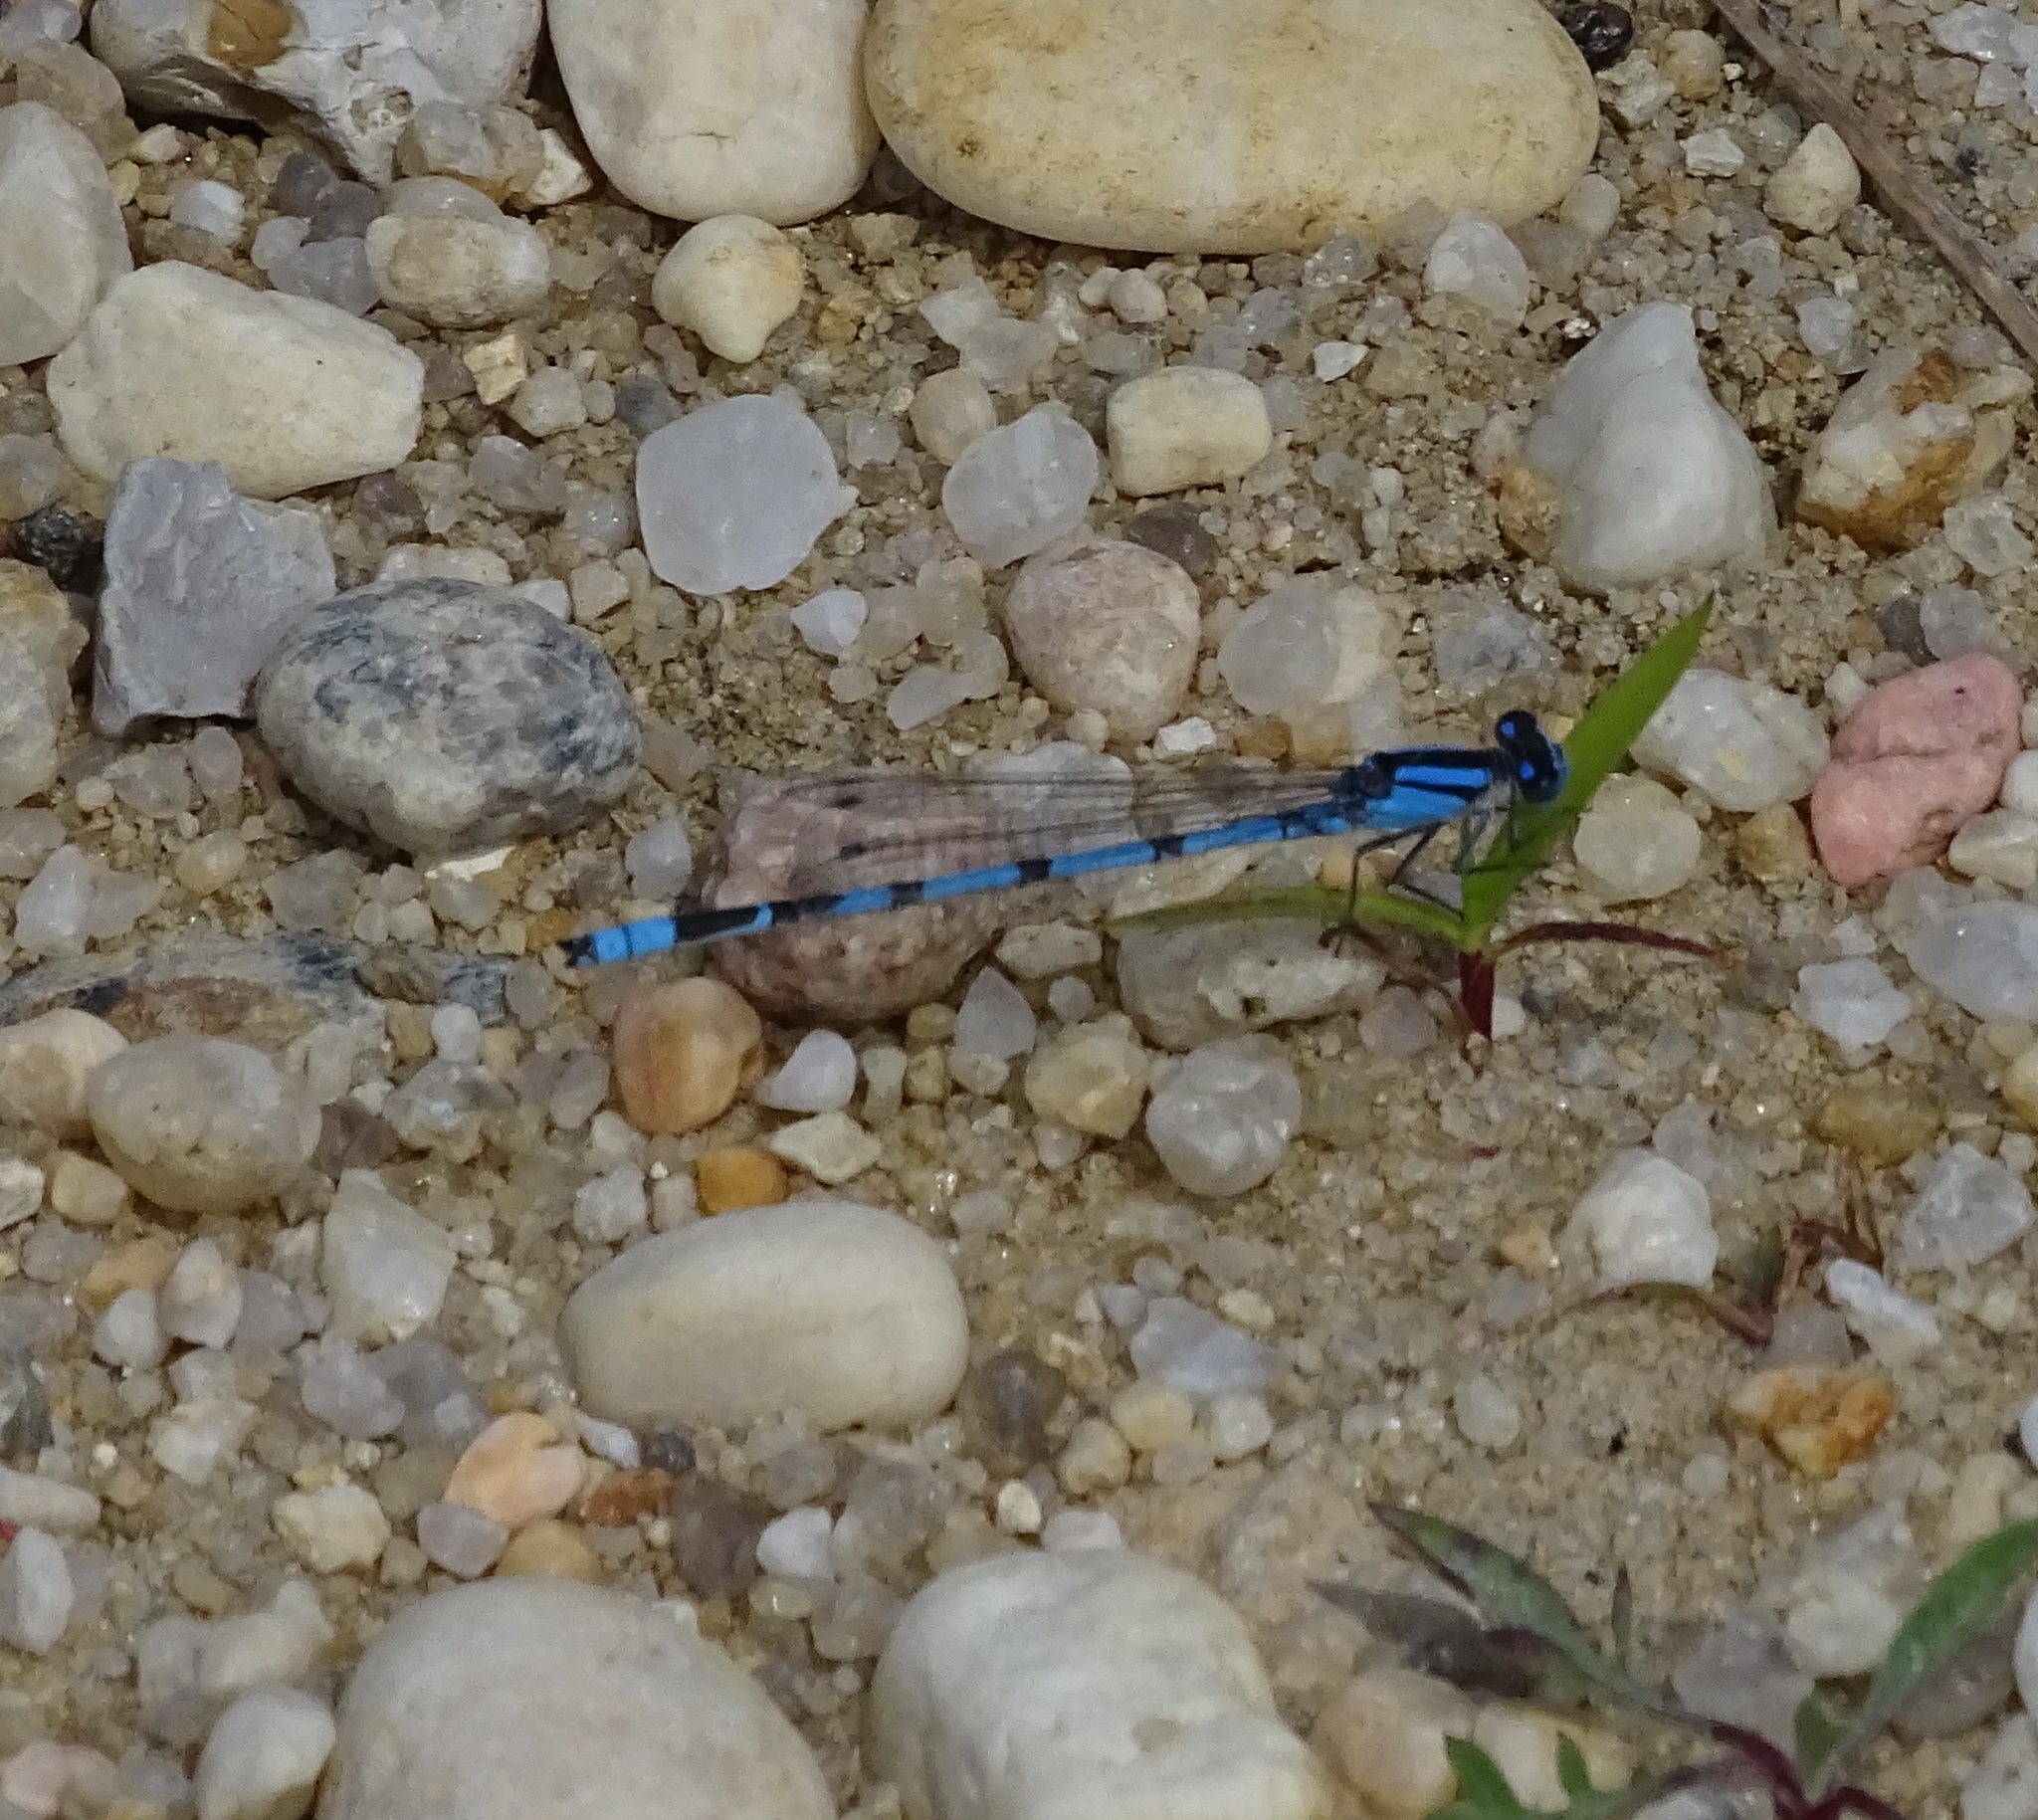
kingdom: Animalia
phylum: Arthropoda
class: Insecta
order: Odonata
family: Coenagrionidae
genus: Enallagma
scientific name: Enallagma civile
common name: Damselfly
